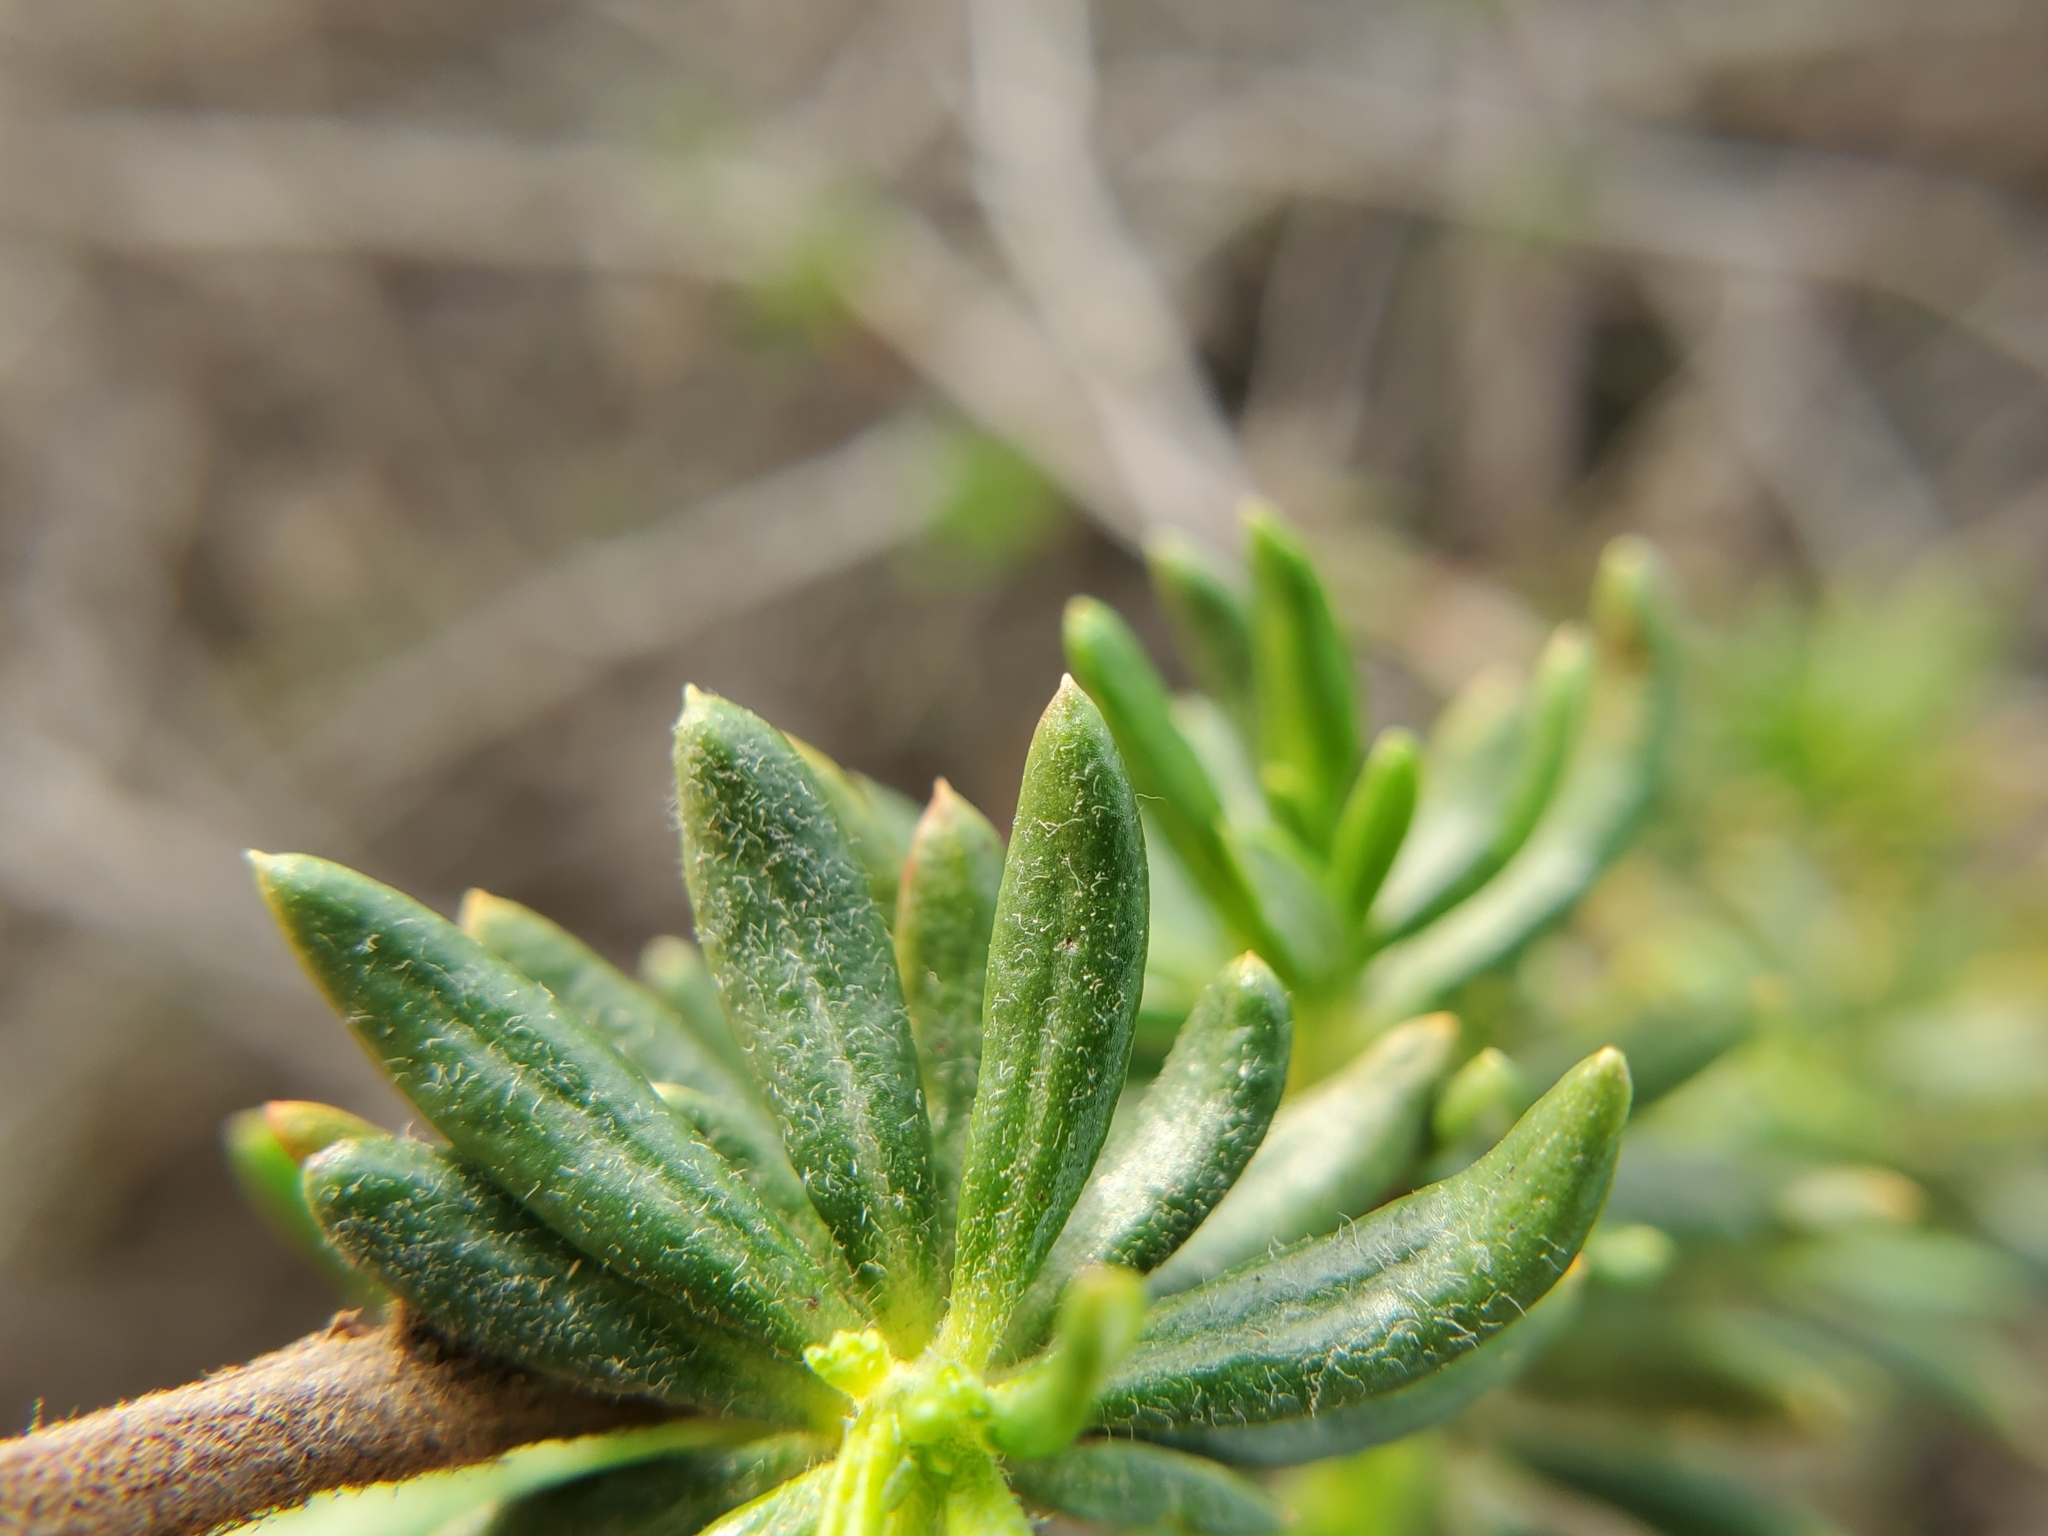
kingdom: Plantae
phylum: Tracheophyta
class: Magnoliopsida
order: Caryophyllales
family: Polygonaceae
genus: Eriogonum
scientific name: Eriogonum fasciculatum
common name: California wild buckwheat
